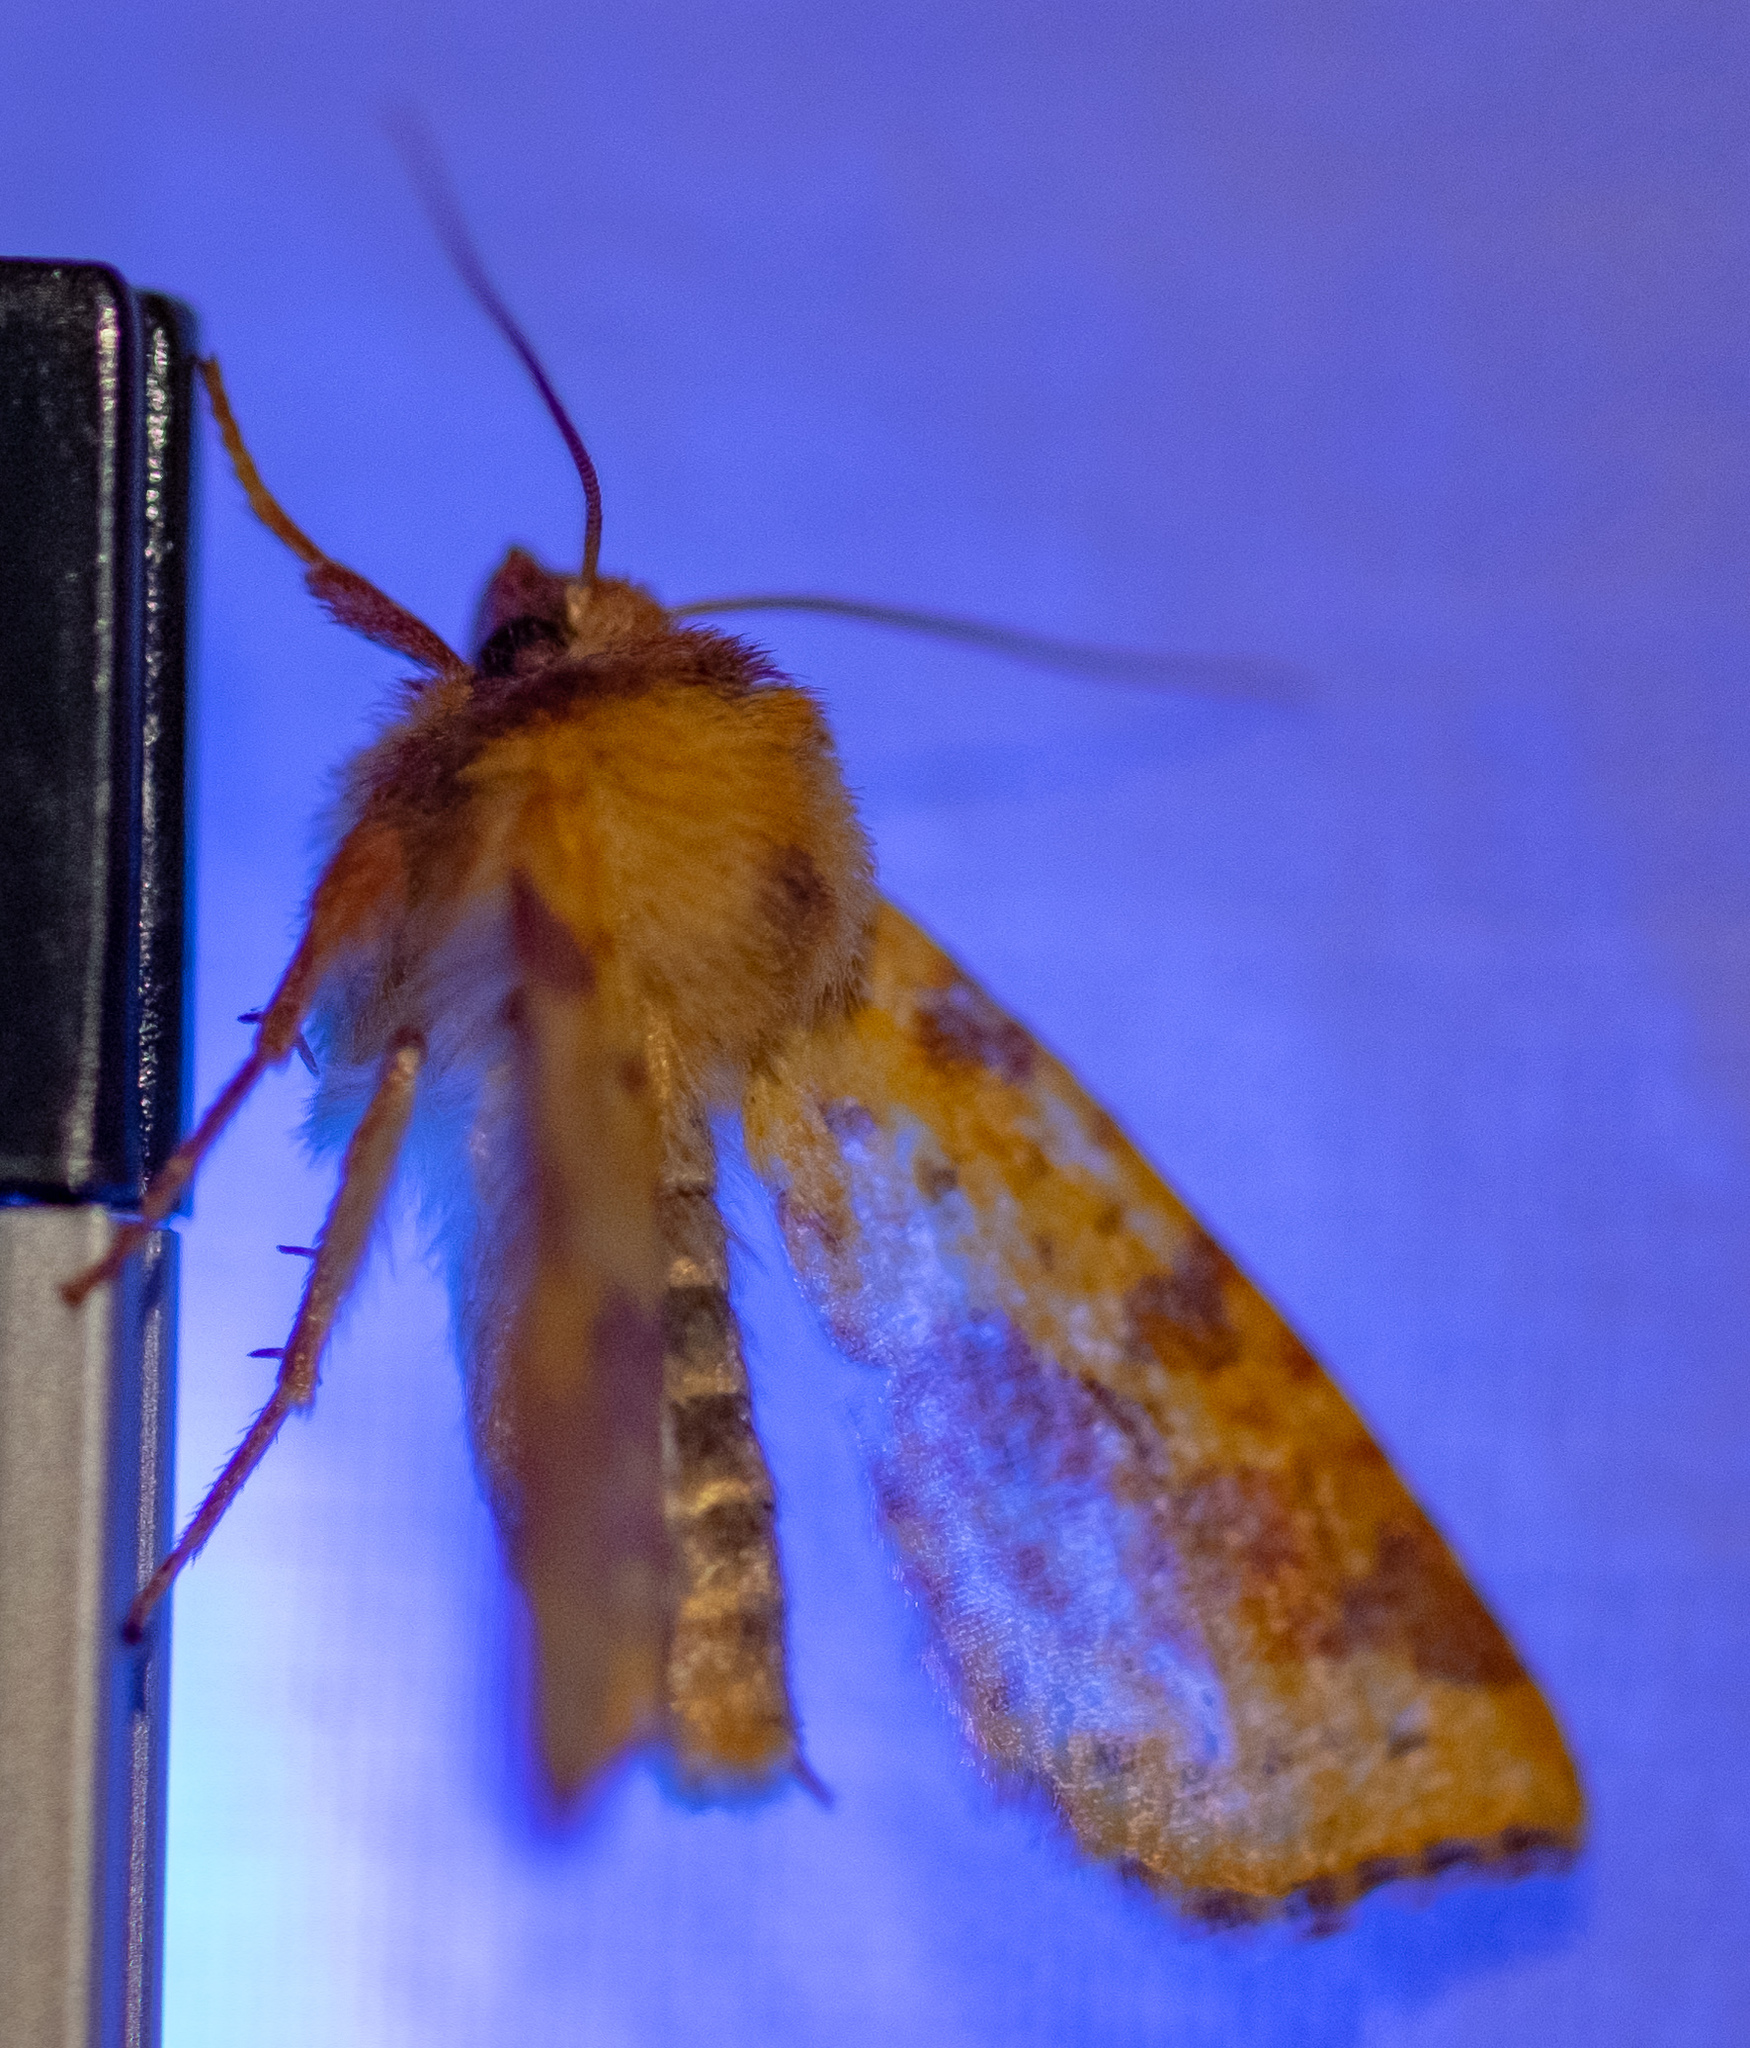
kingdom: Animalia
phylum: Arthropoda
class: Insecta
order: Lepidoptera
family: Noctuidae
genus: Xanthia
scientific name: Xanthia togata
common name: Pink-barred sallow
